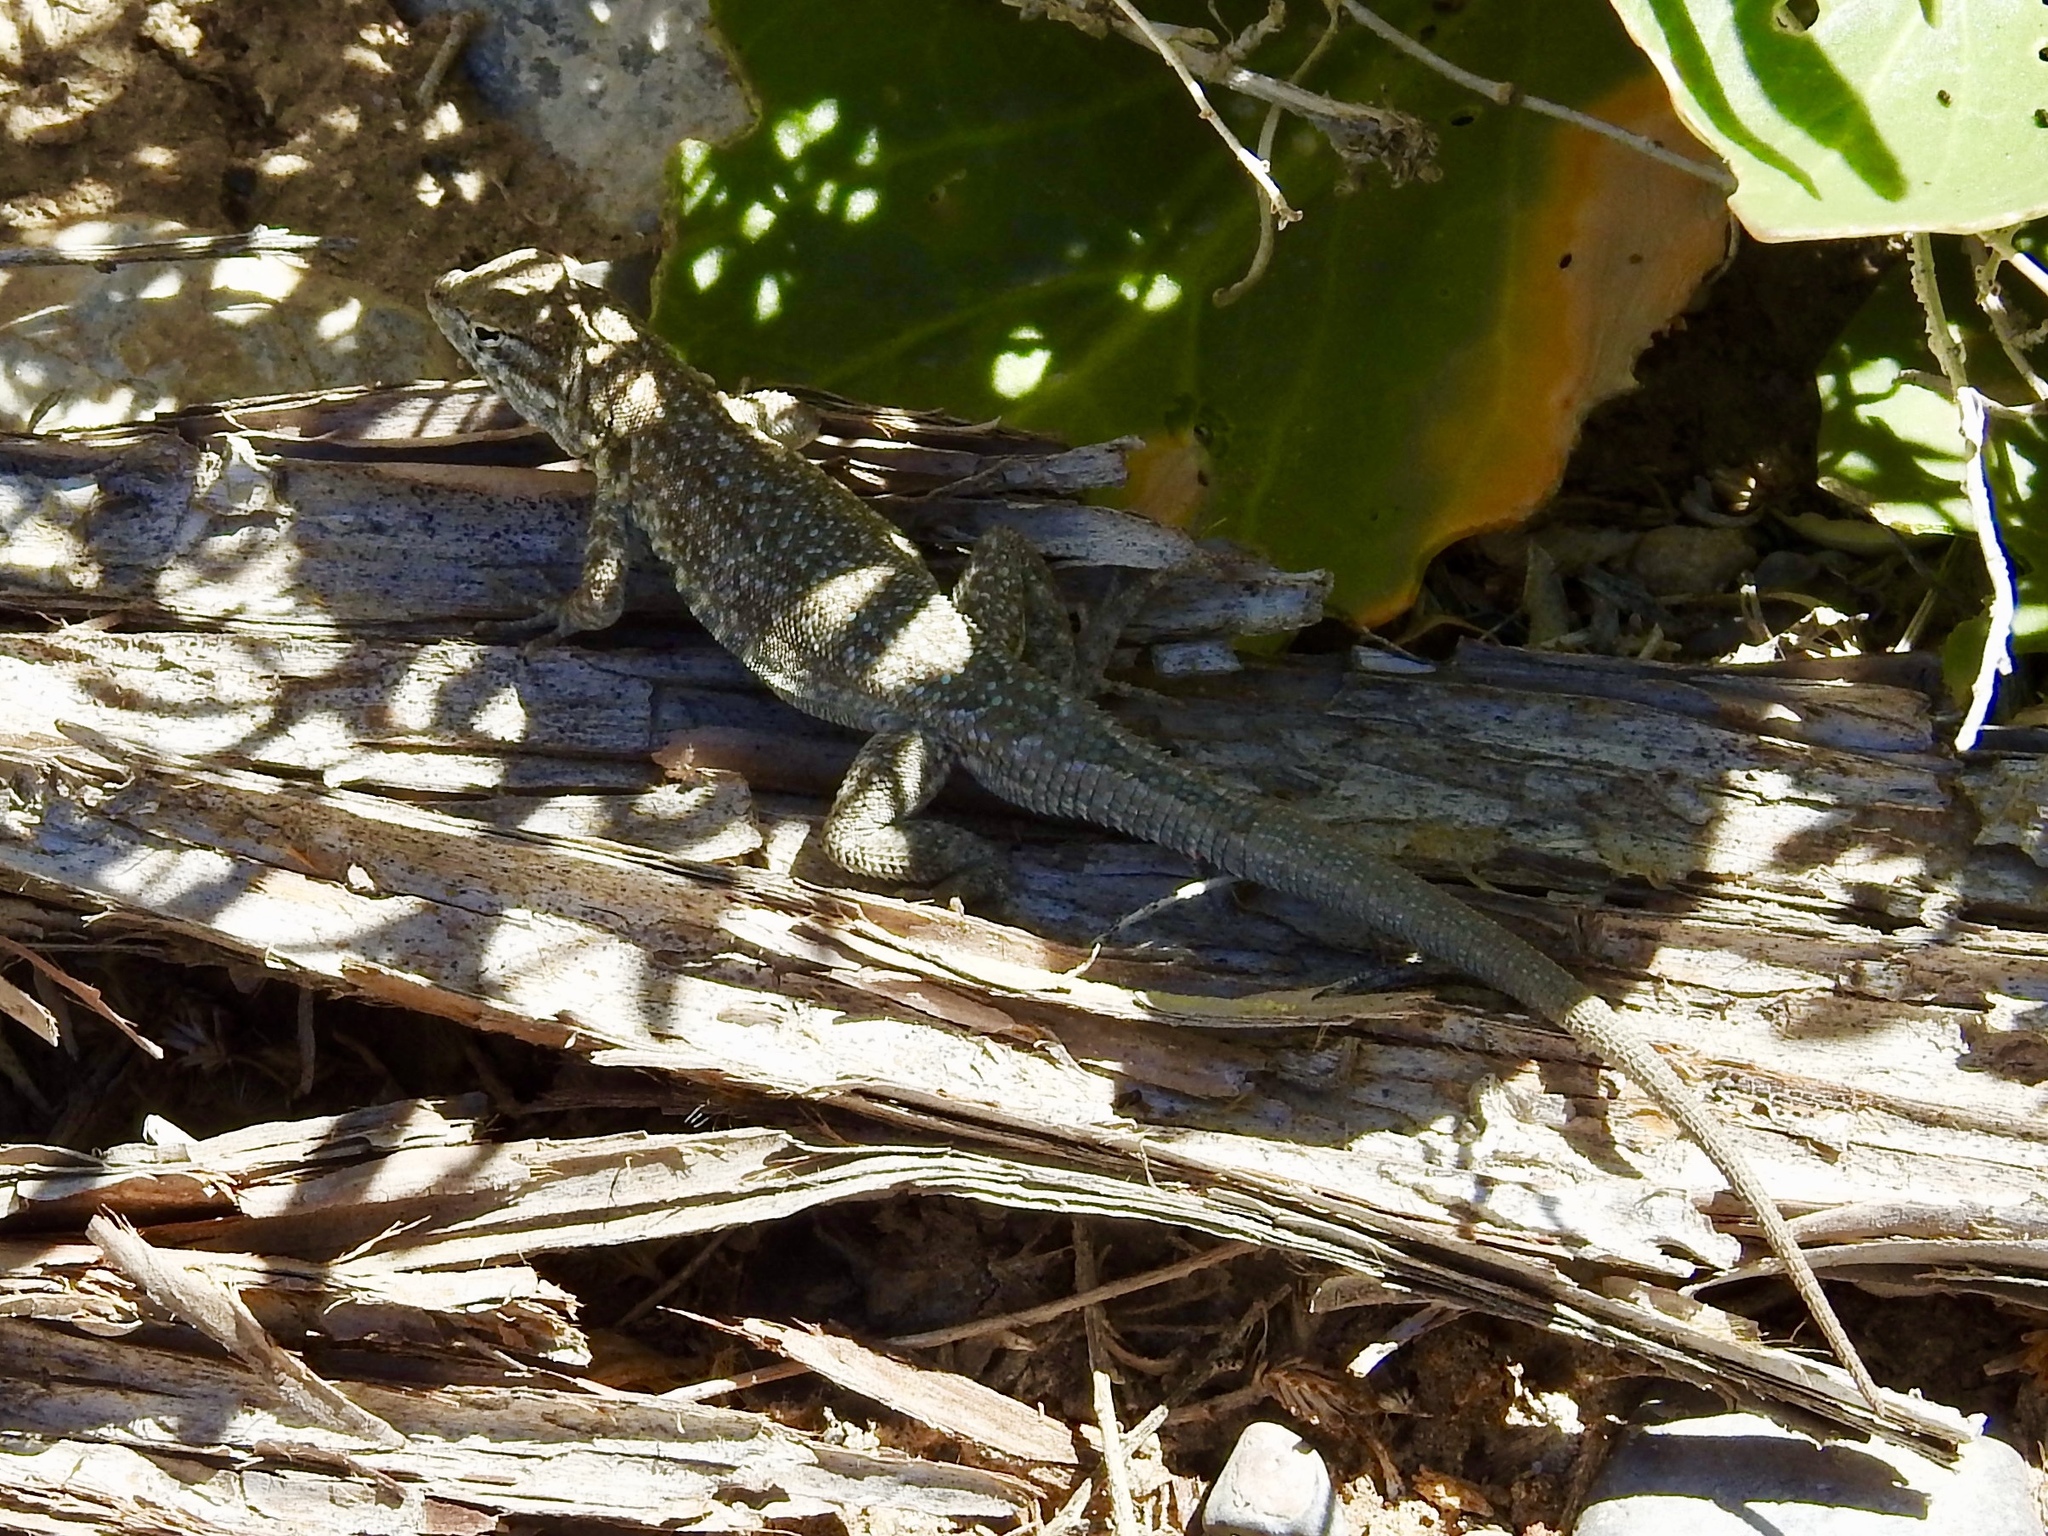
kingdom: Animalia
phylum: Chordata
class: Squamata
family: Phrynosomatidae
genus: Uta
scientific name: Uta stansburiana
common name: Side-blotched lizard
